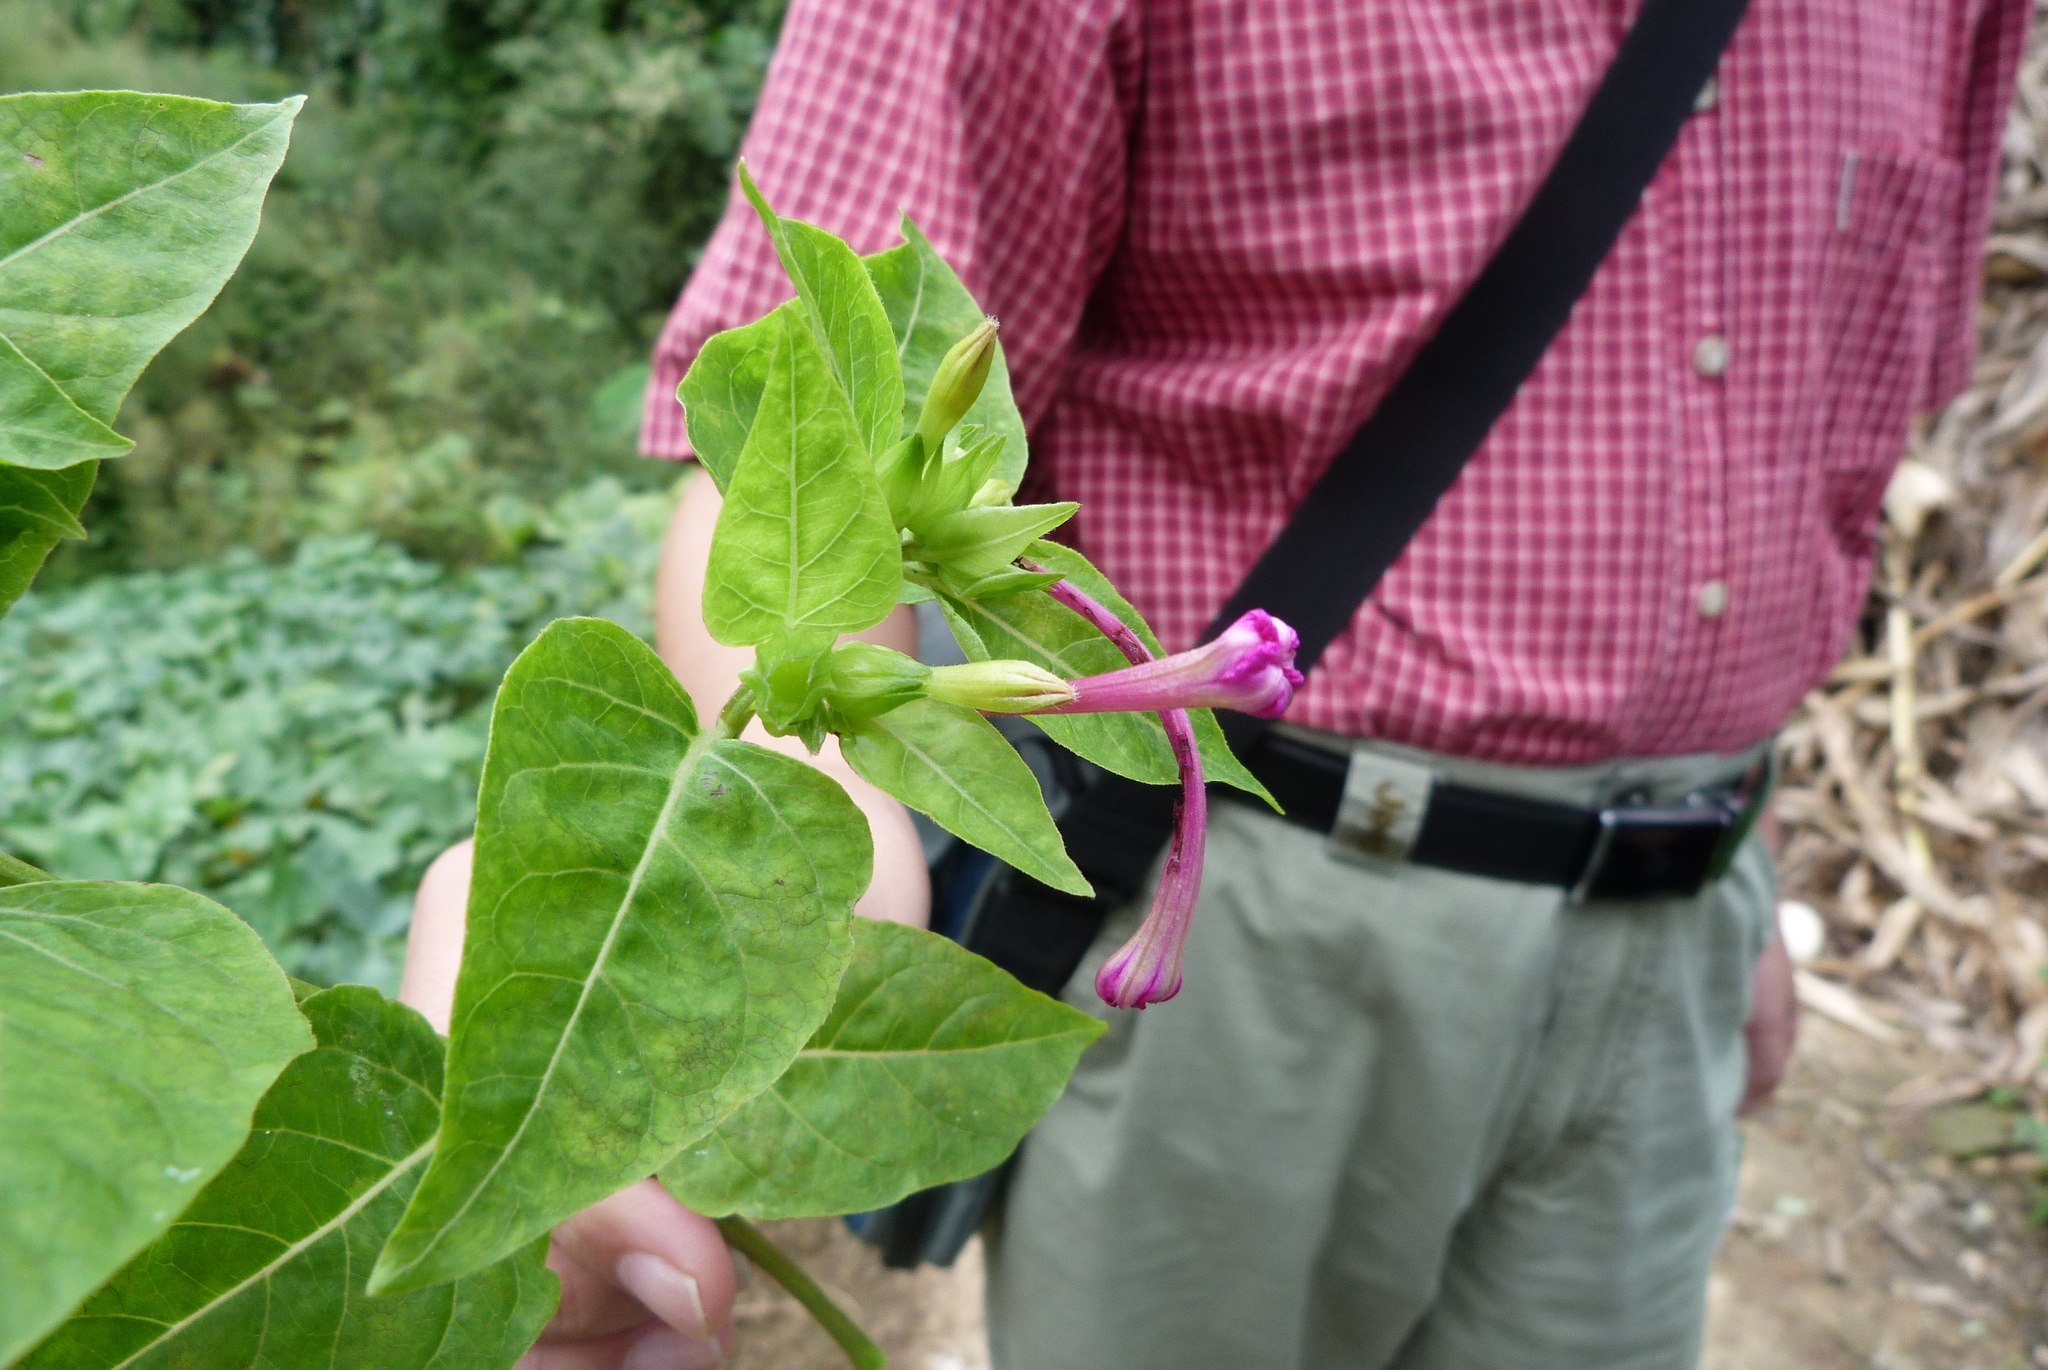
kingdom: Plantae
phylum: Tracheophyta
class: Magnoliopsida
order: Caryophyllales
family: Nyctaginaceae
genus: Mirabilis
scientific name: Mirabilis jalapa
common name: Marvel-of-peru
